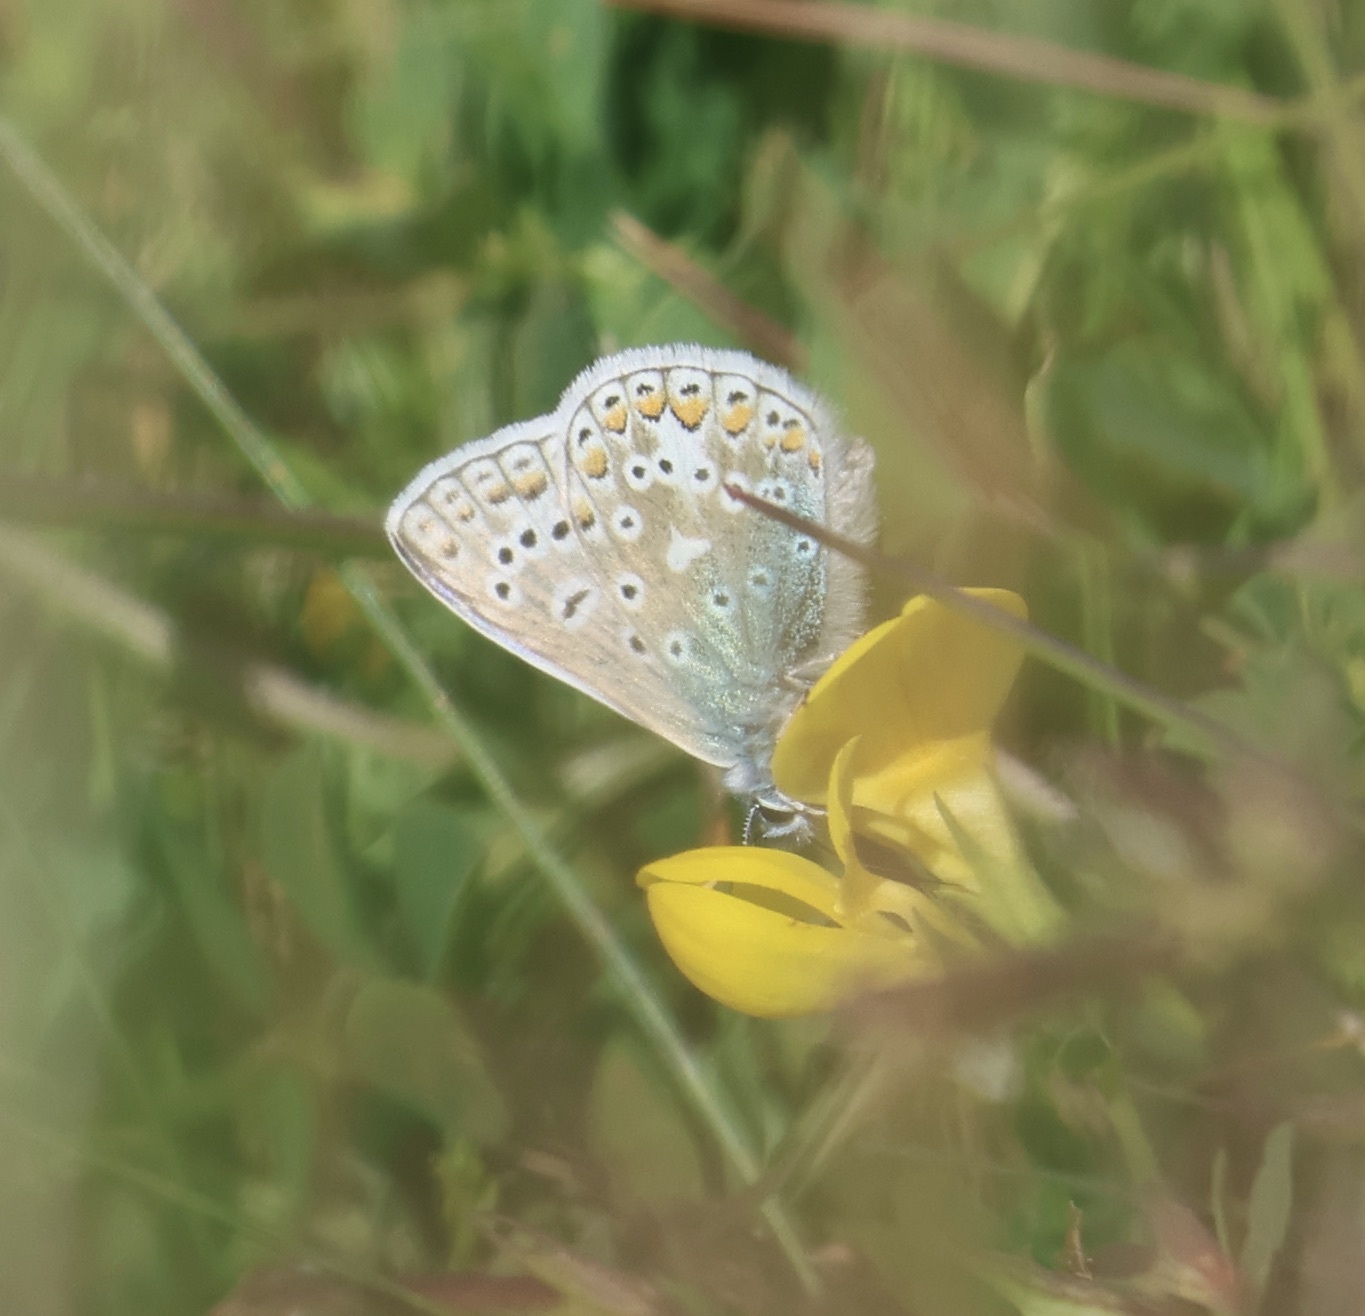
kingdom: Animalia
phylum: Arthropoda
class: Insecta
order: Lepidoptera
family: Lycaenidae
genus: Polyommatus
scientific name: Polyommatus icarus
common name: Common blue
